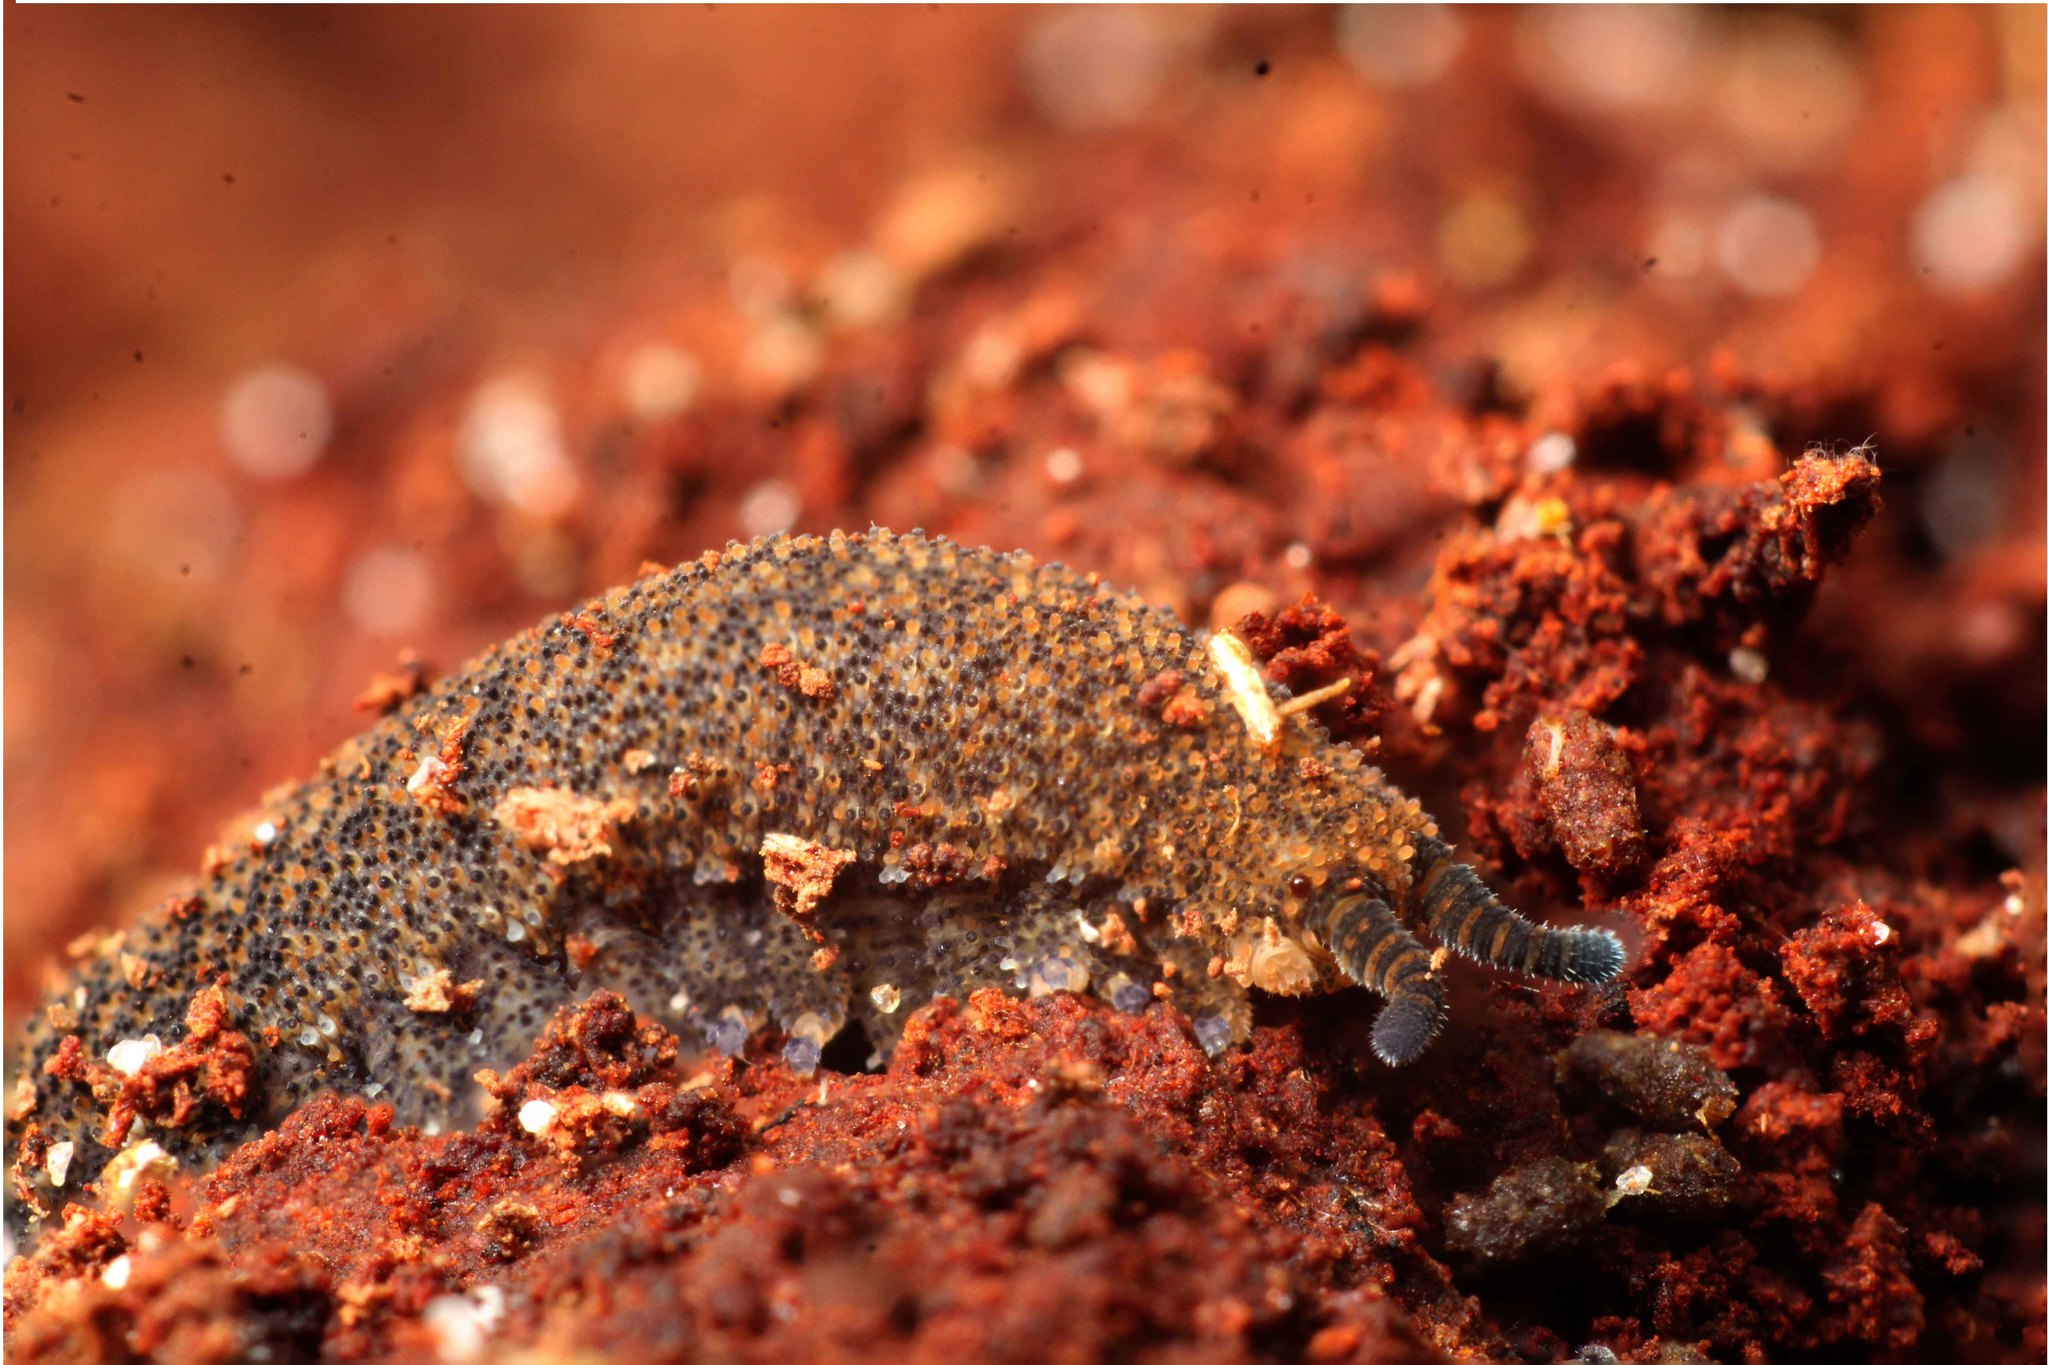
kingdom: Animalia
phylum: Onychophora
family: Peripatopsidae
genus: Kumbadjena
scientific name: Kumbadjena extrema
